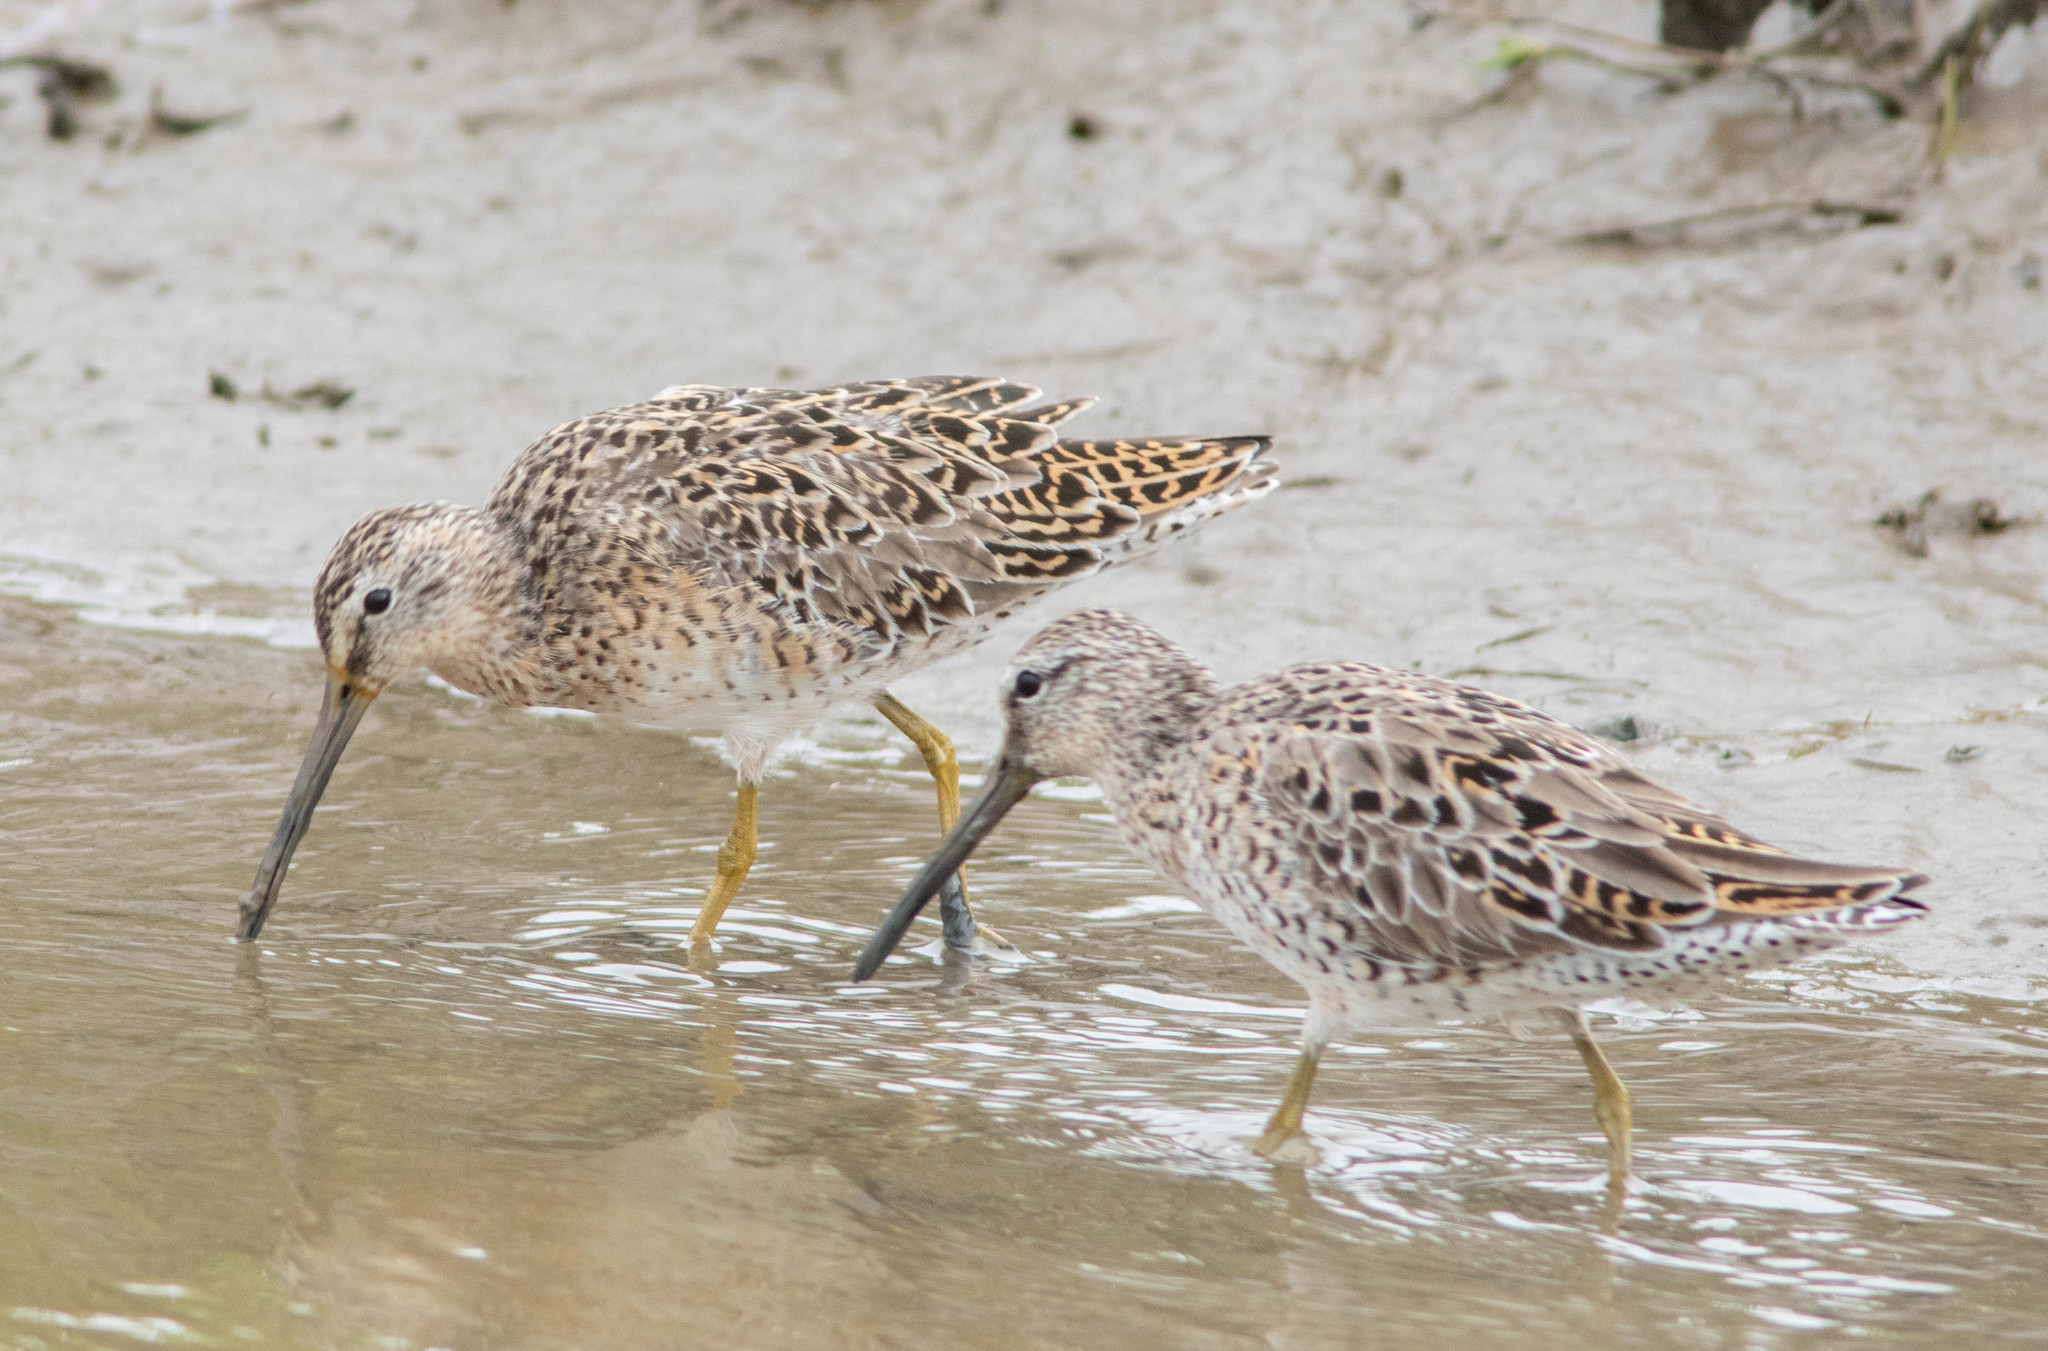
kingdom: Animalia
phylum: Chordata
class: Aves
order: Charadriiformes
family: Scolopacidae
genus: Limnodromus
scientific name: Limnodromus griseus
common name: Short-billed dowitcher
